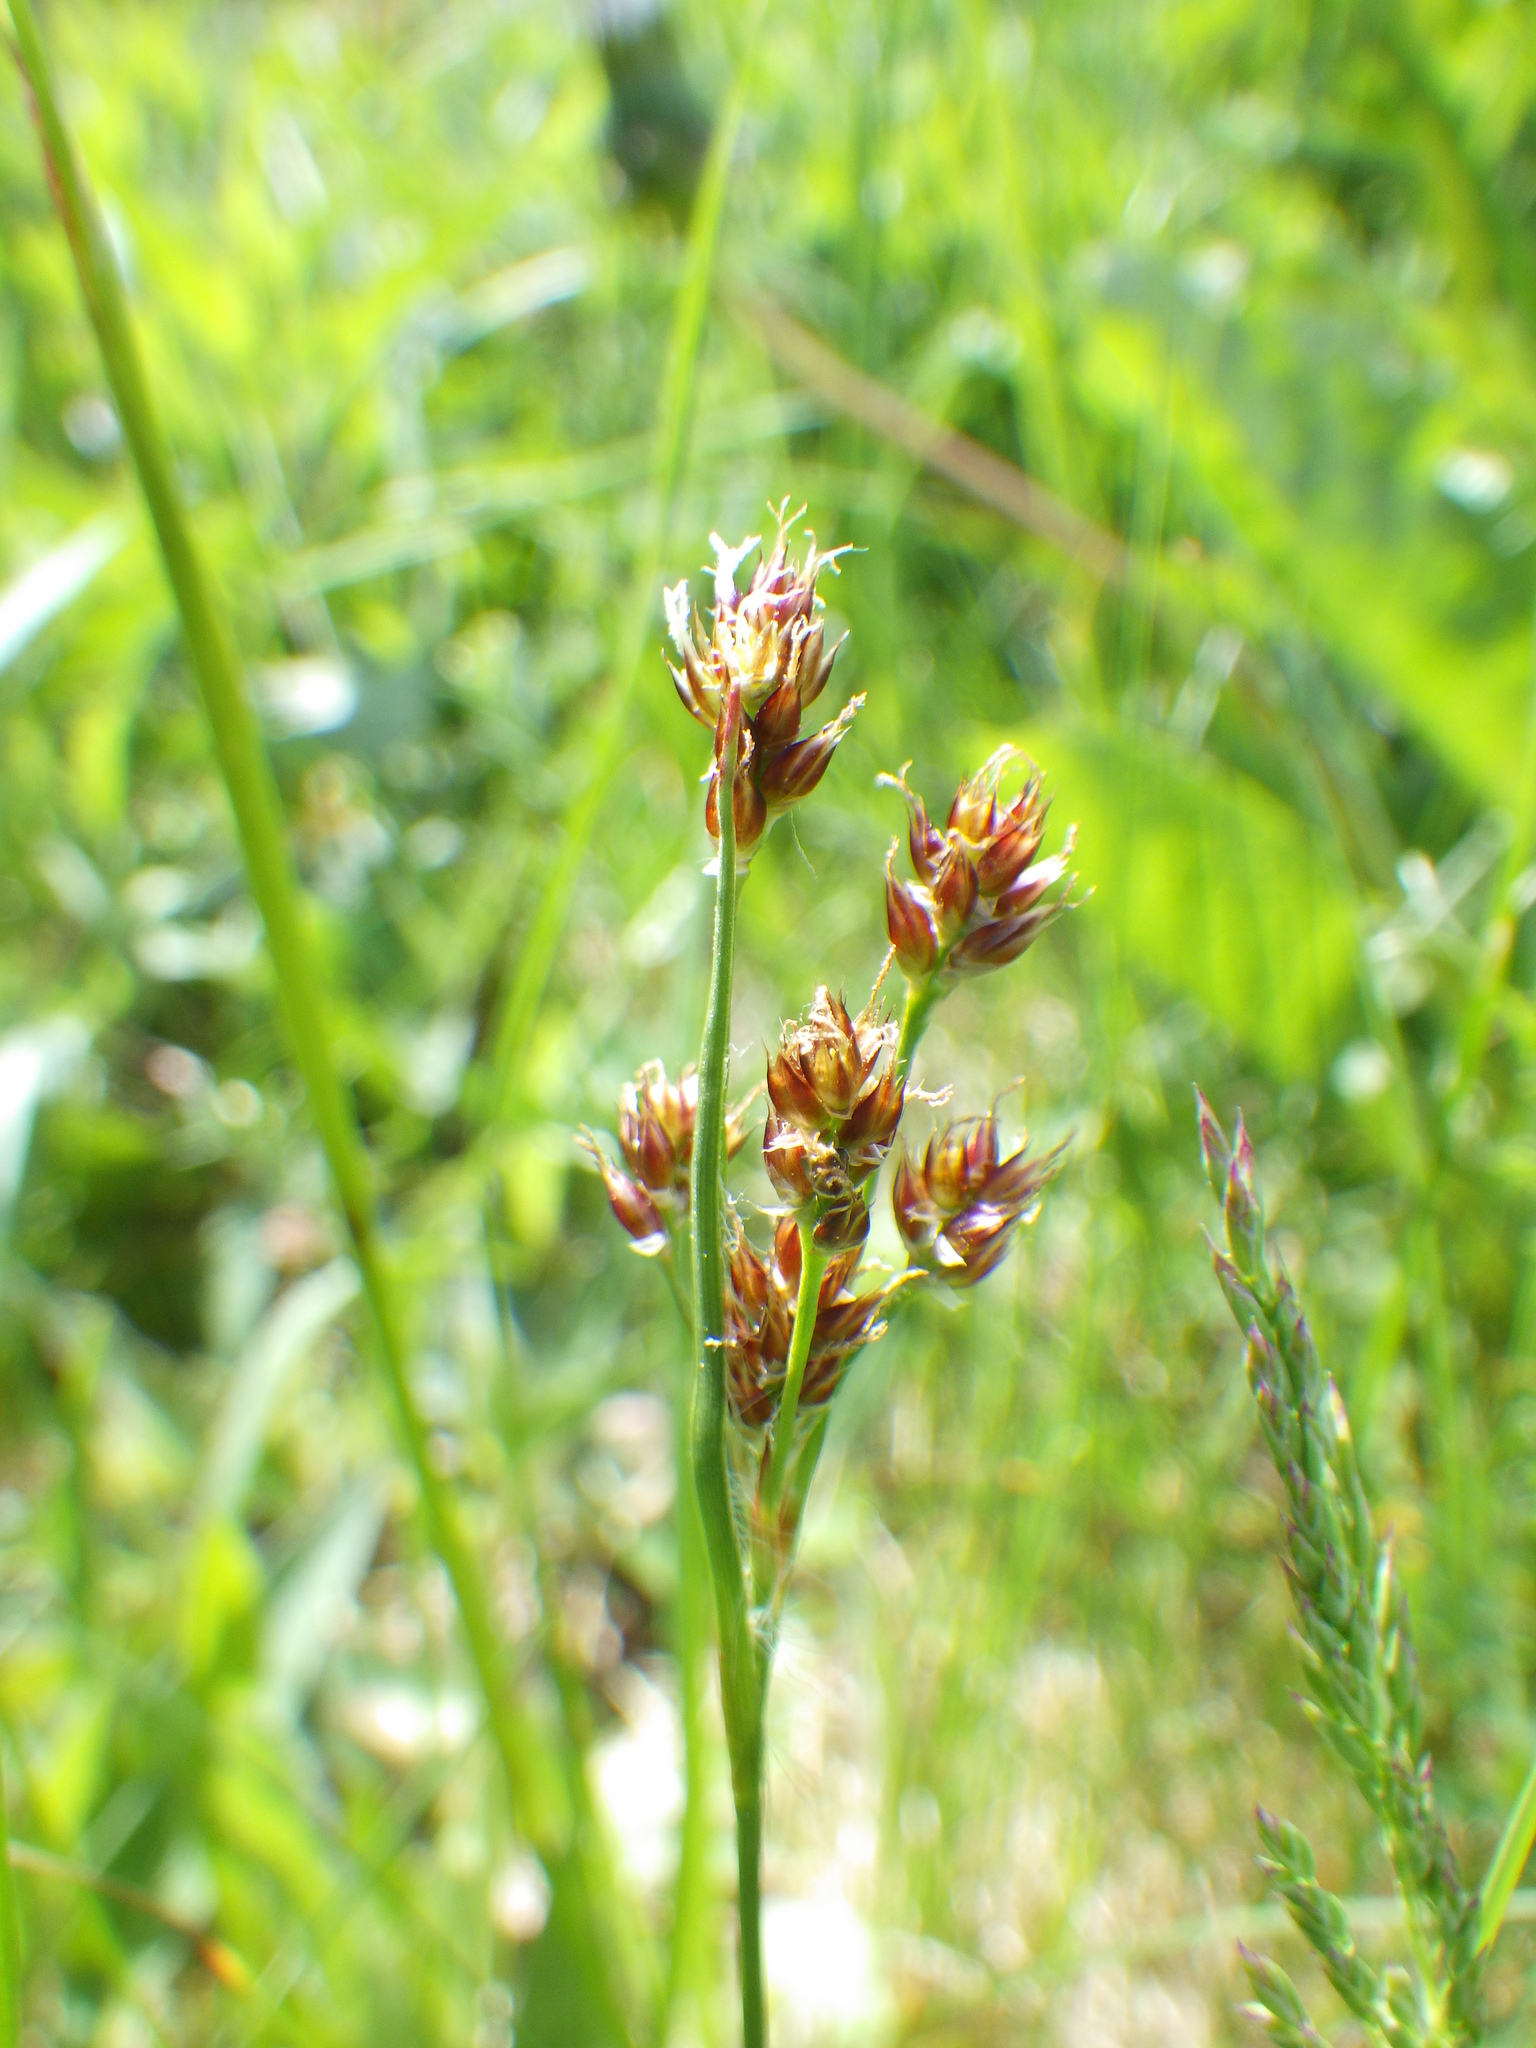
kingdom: Plantae
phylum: Tracheophyta
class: Liliopsida
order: Poales
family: Juncaceae
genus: Luzula
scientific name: Luzula multiflora
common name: Heath wood-rush
